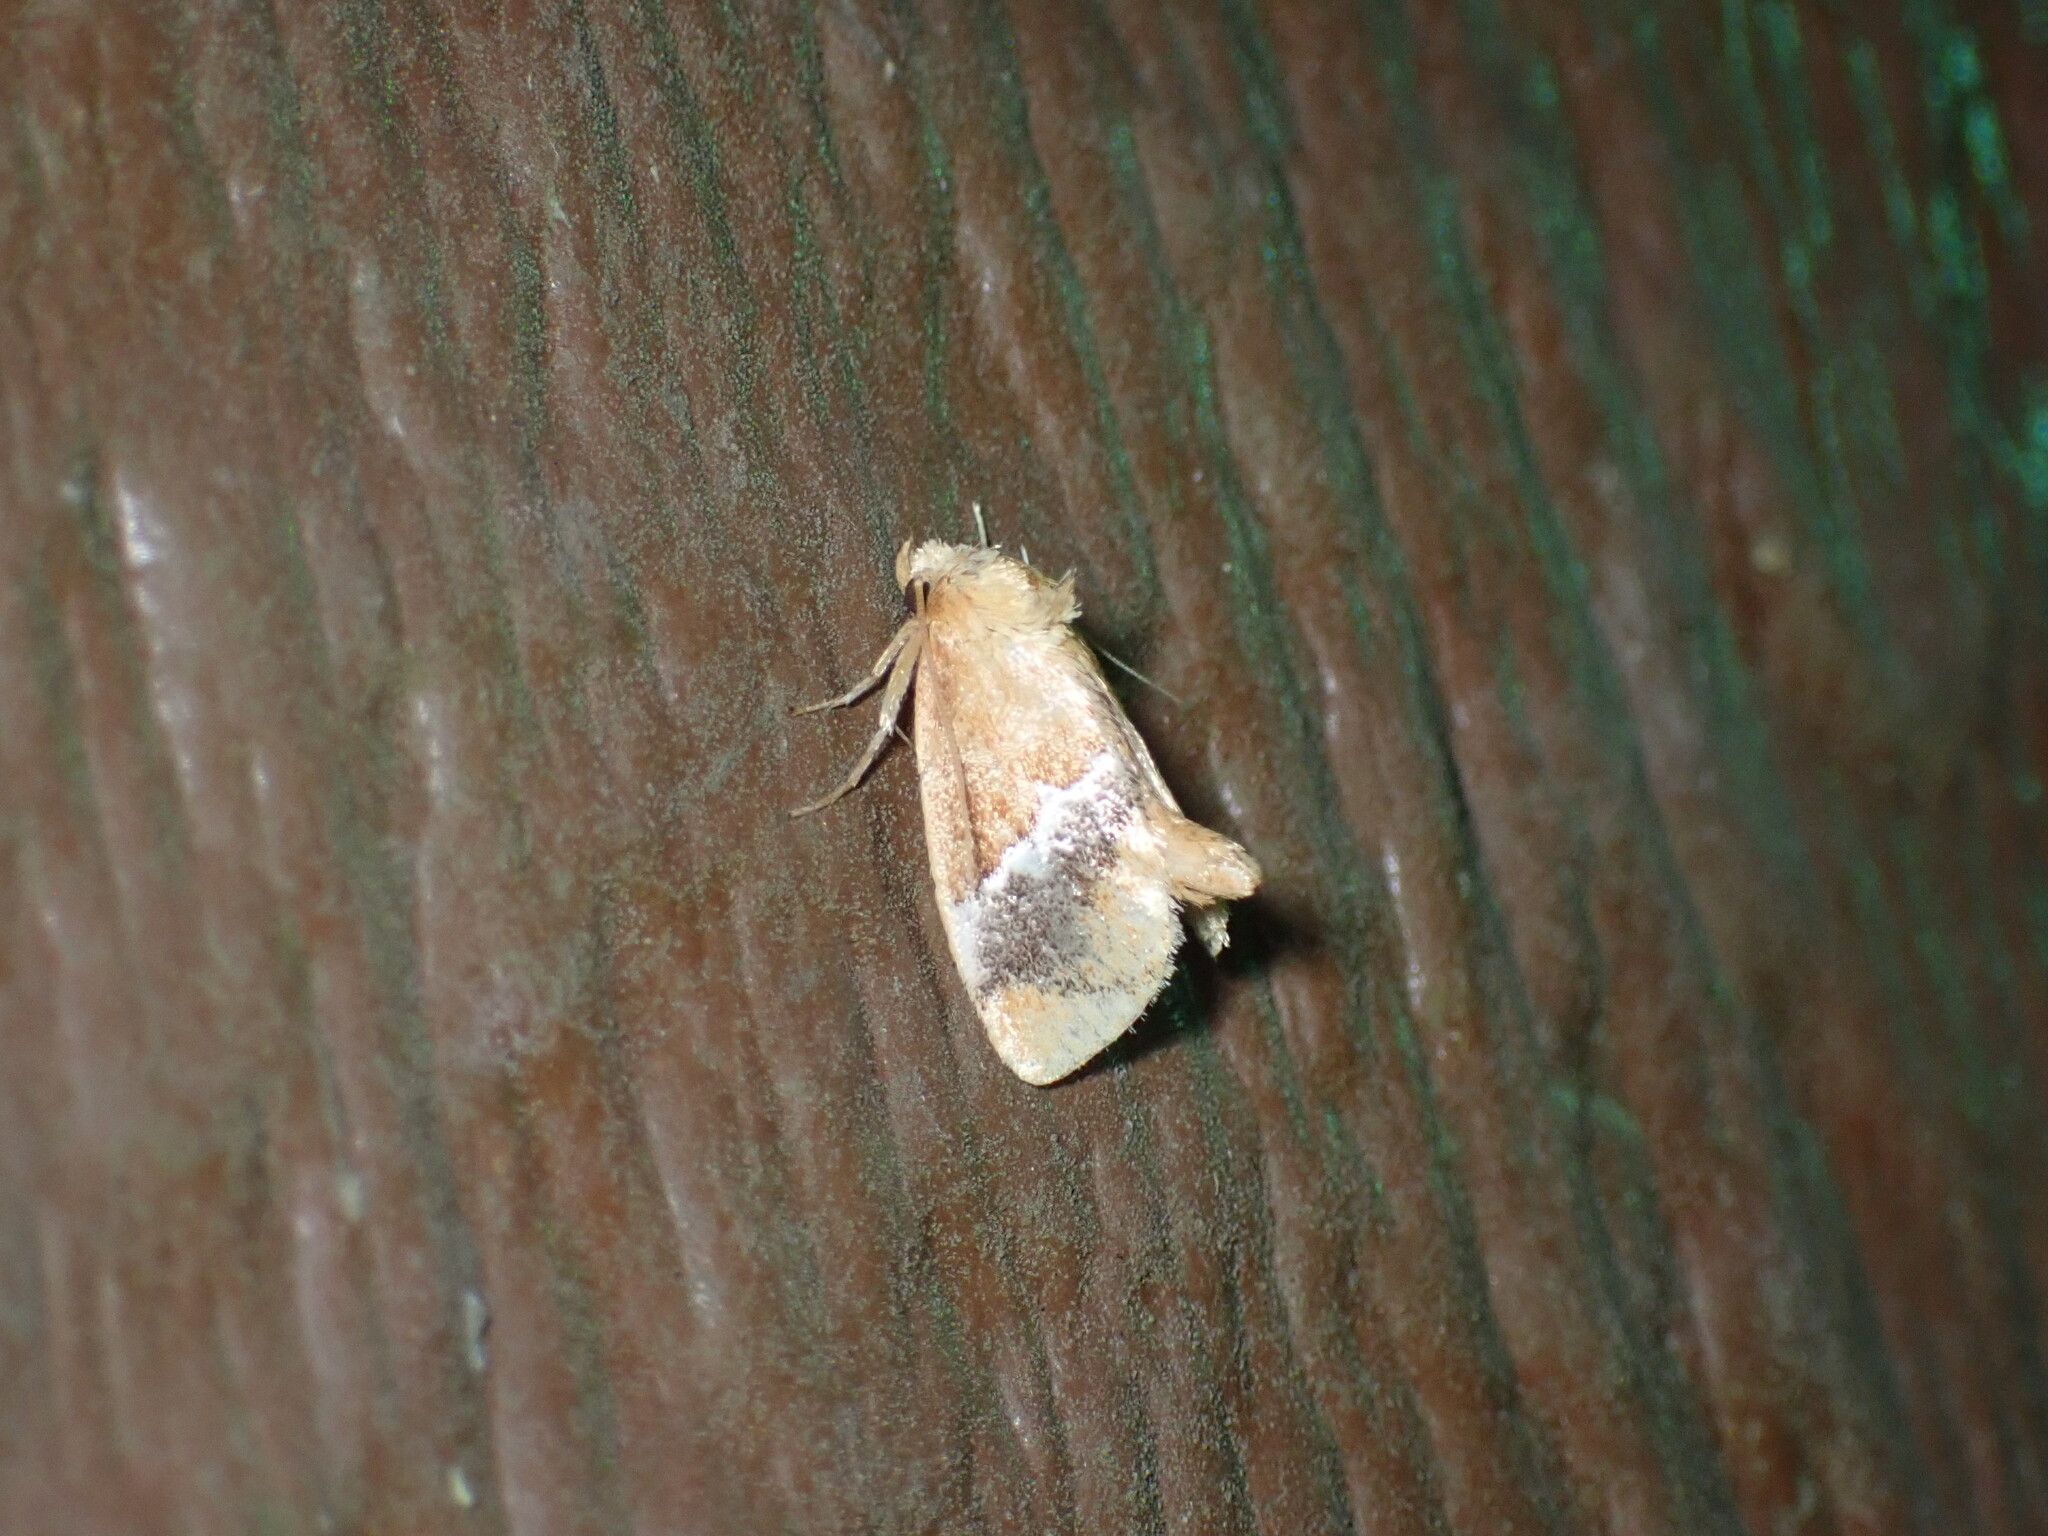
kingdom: Animalia
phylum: Arthropoda
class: Insecta
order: Lepidoptera
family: Limacodidae
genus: Lithacodes
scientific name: Lithacodes fasciola
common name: Yellow-shouldered slug moth
